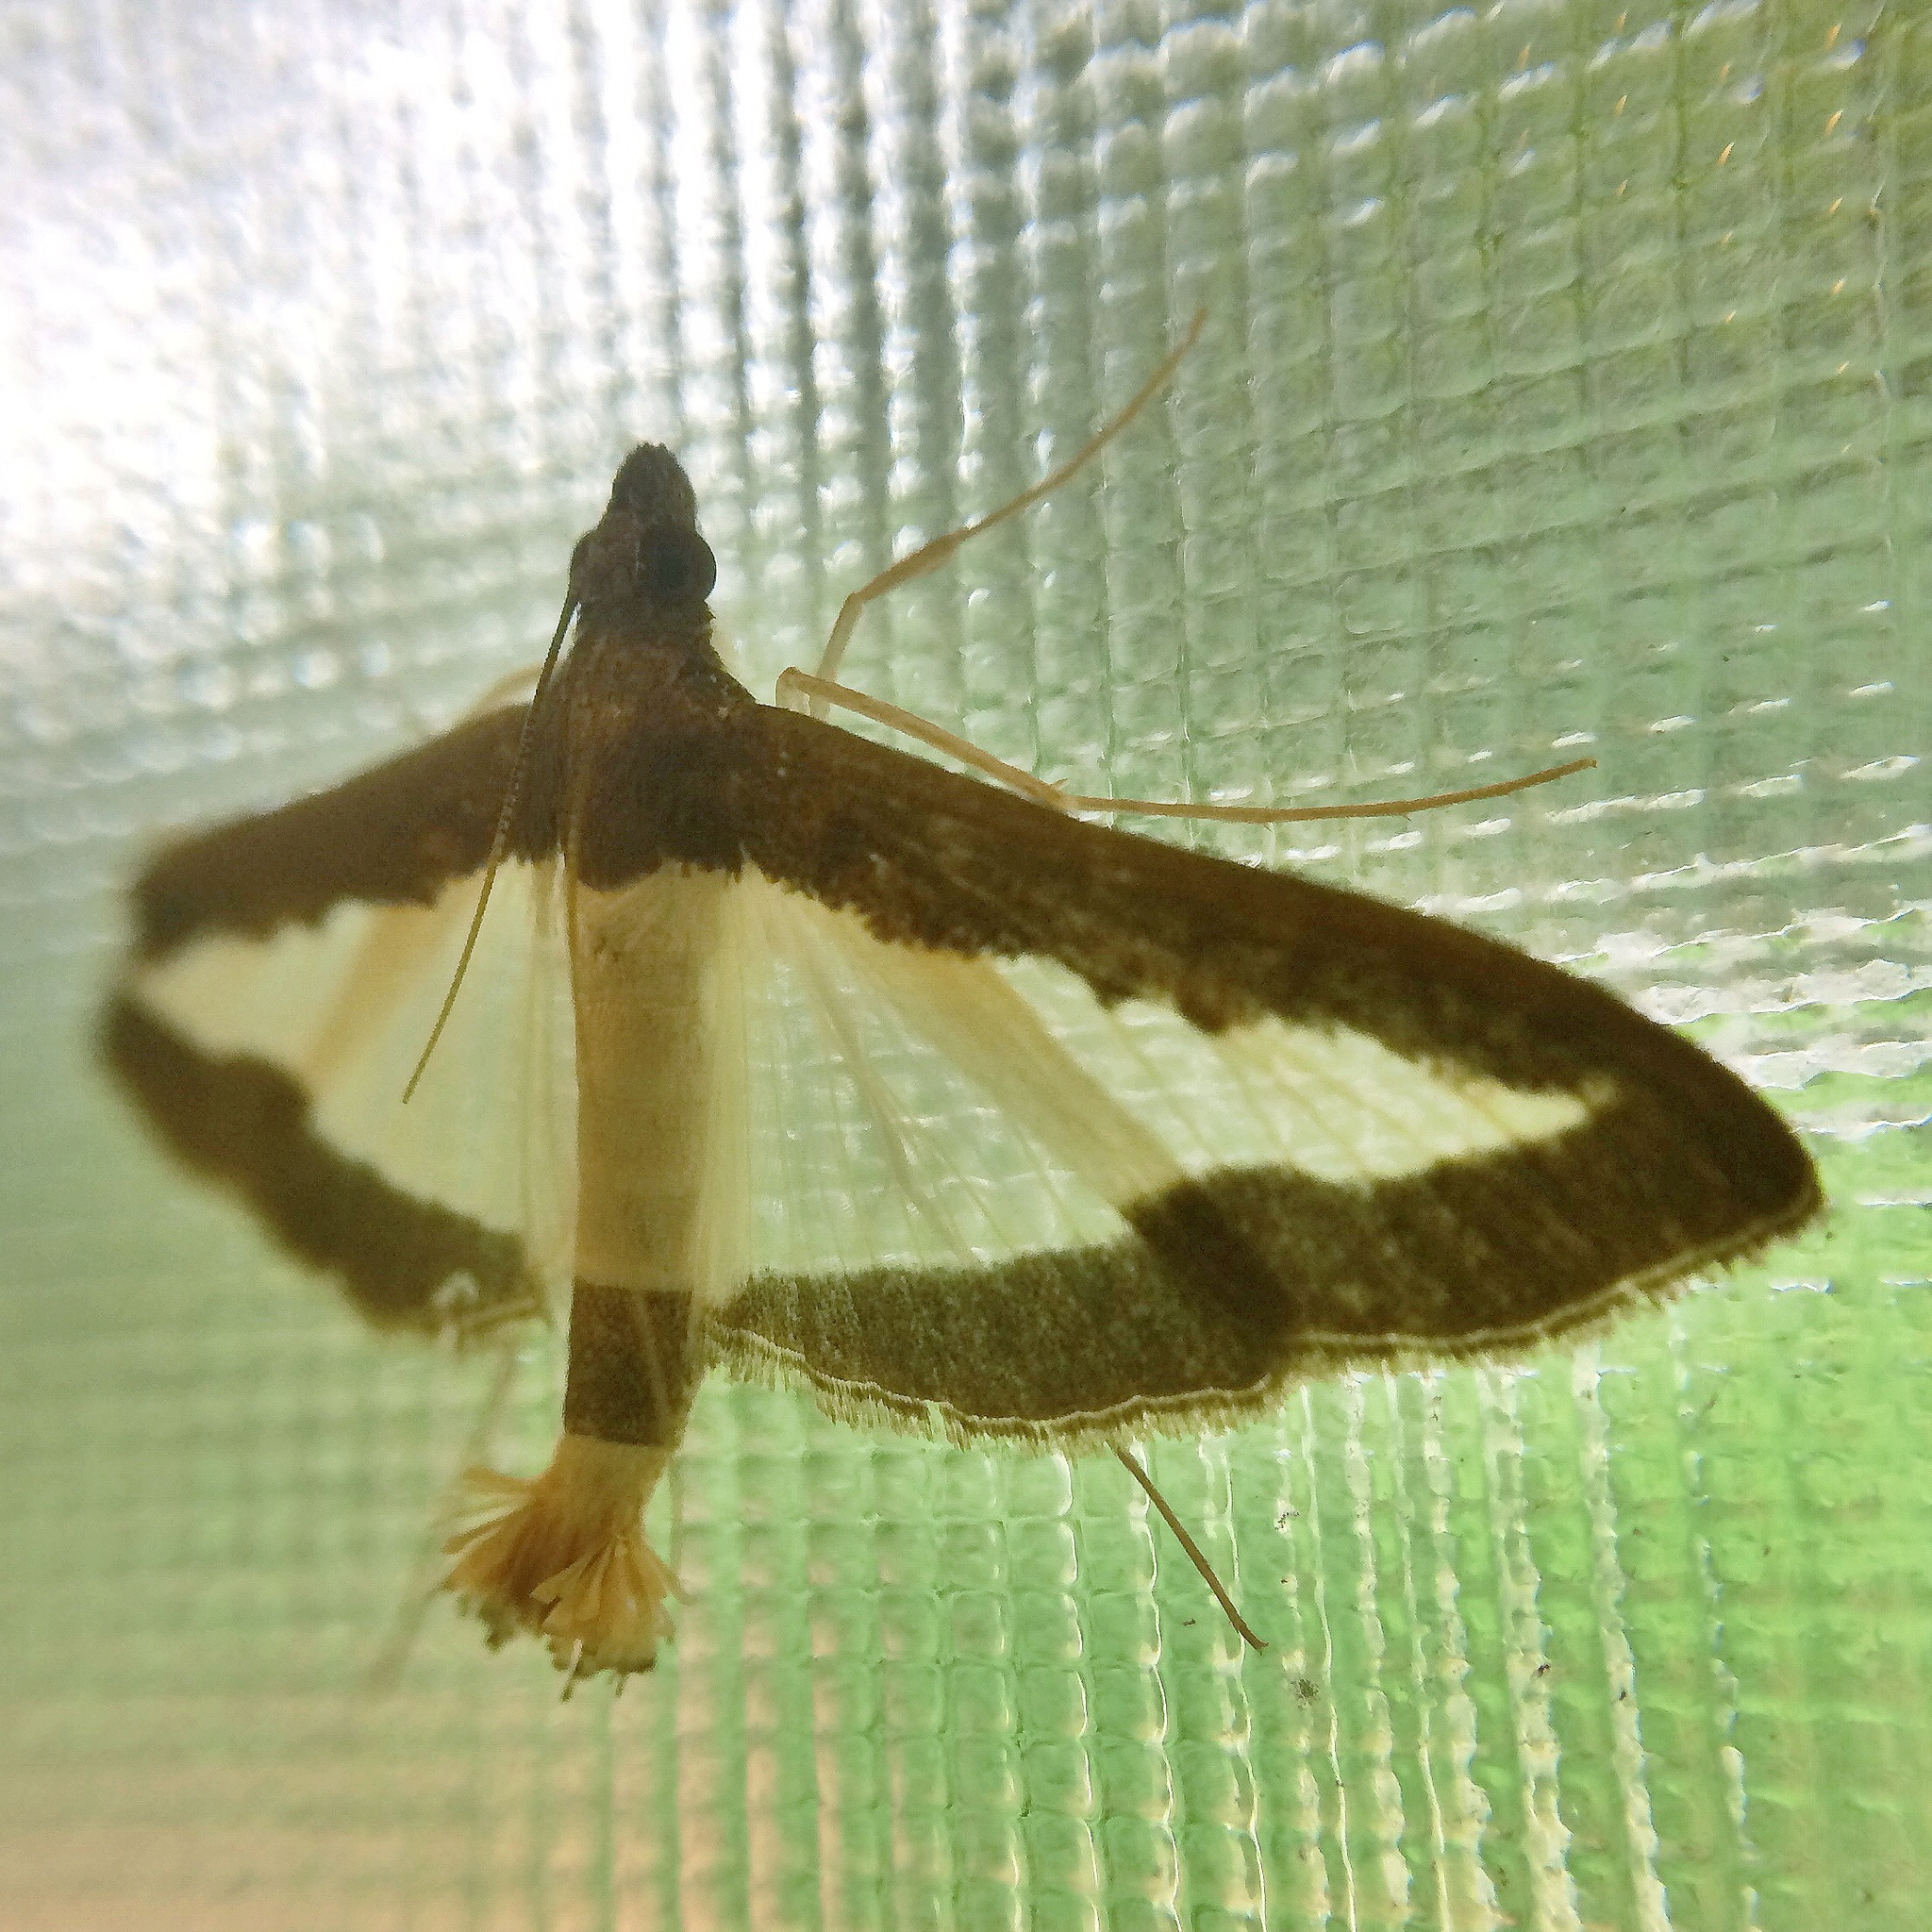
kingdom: Animalia
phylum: Arthropoda
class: Insecta
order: Lepidoptera
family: Crambidae
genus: Diaphania
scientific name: Diaphania indica
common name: Cucumber moth
